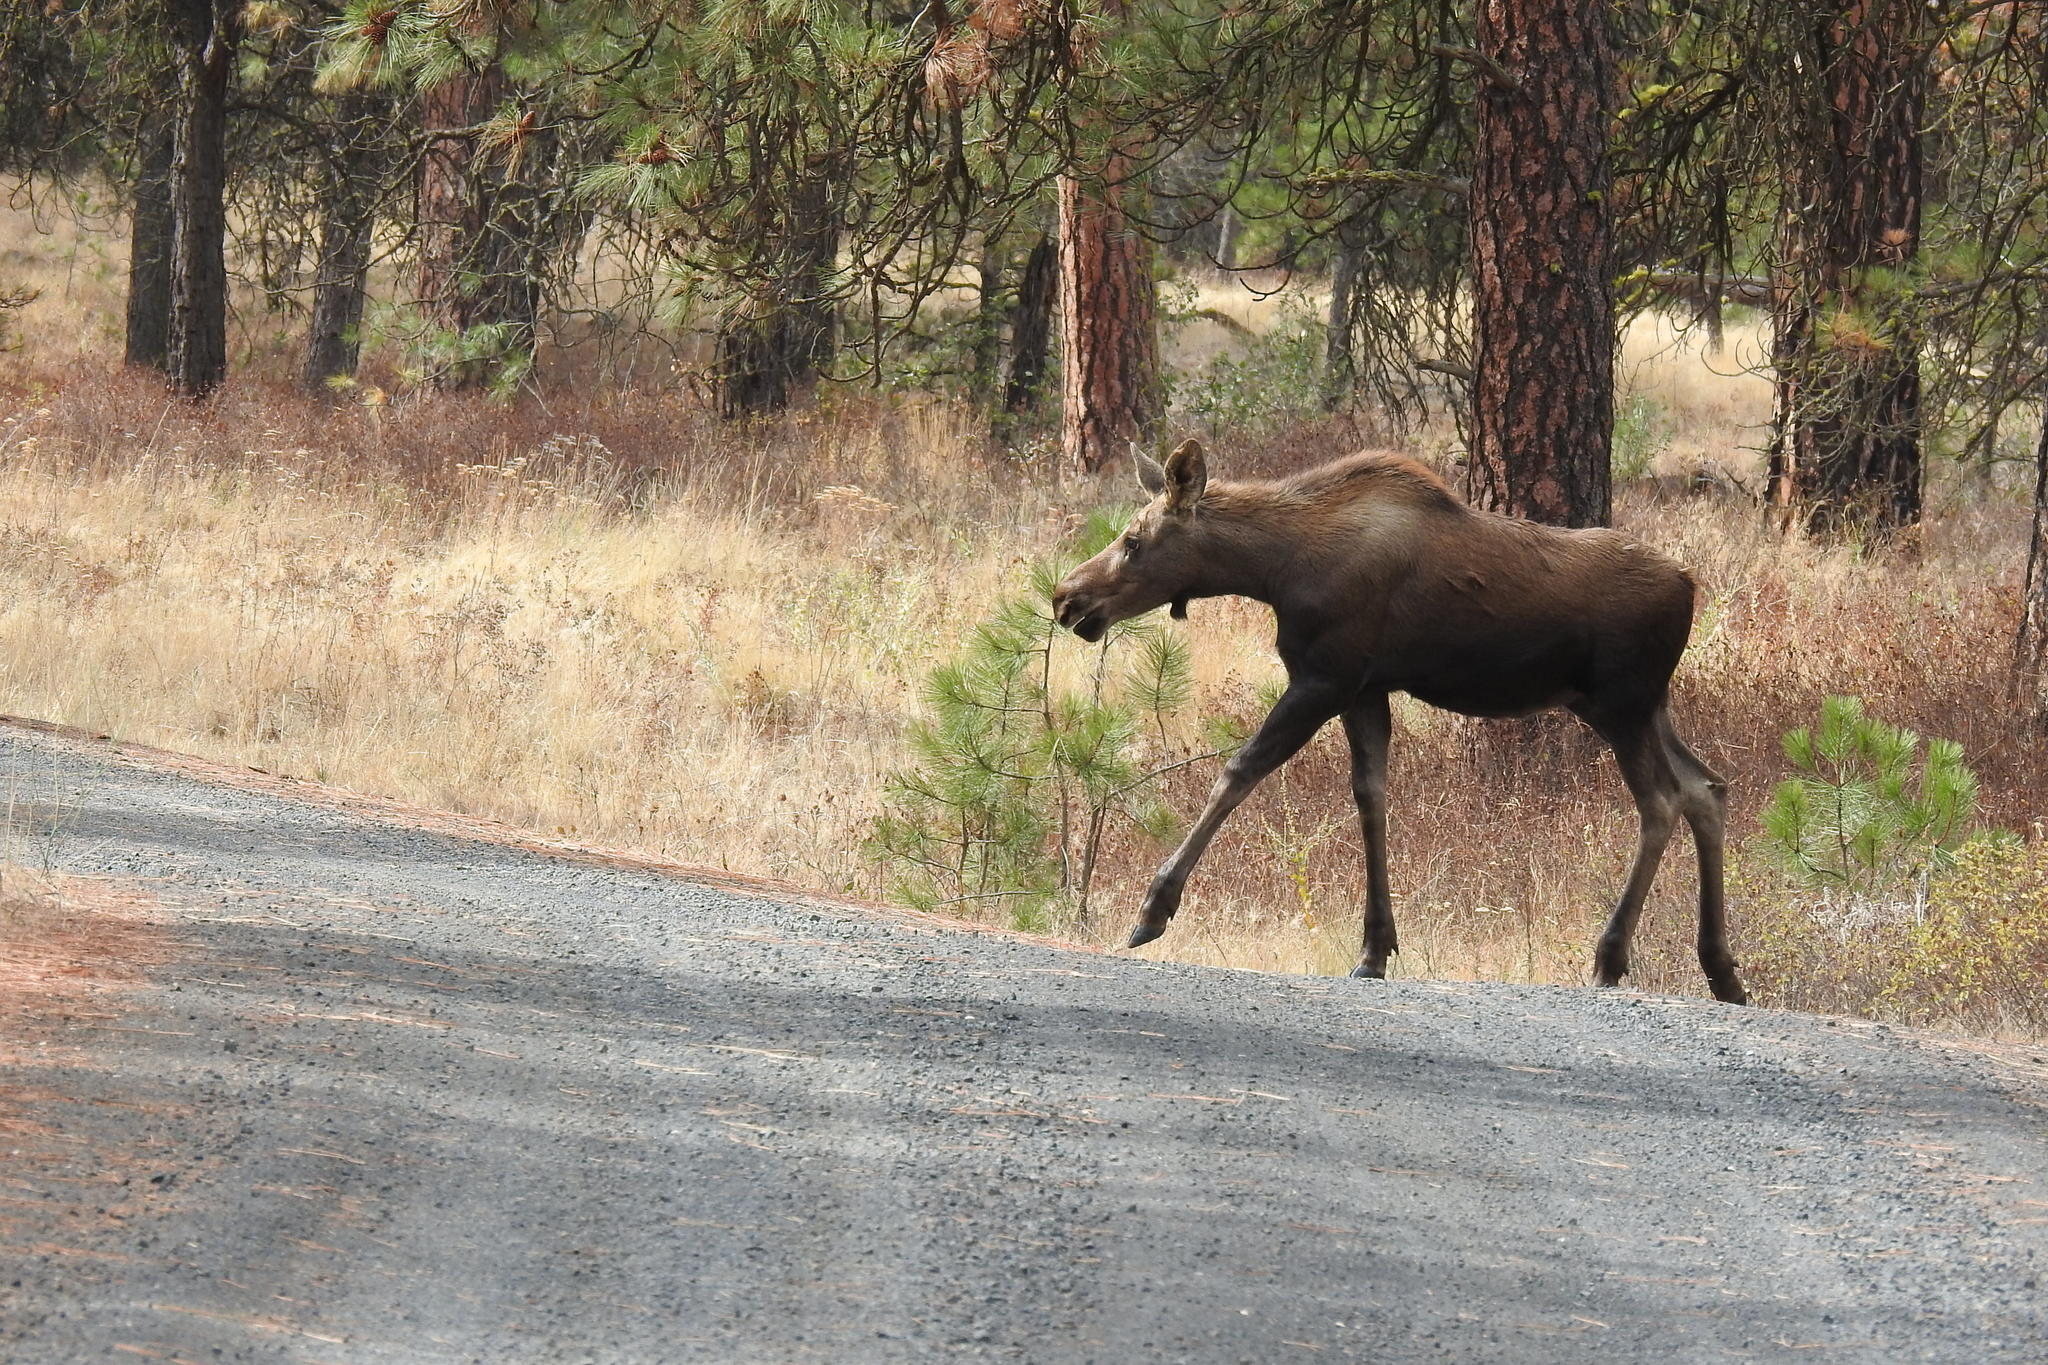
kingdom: Animalia
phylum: Chordata
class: Mammalia
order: Artiodactyla
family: Cervidae
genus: Alces
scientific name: Alces alces
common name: Moose
